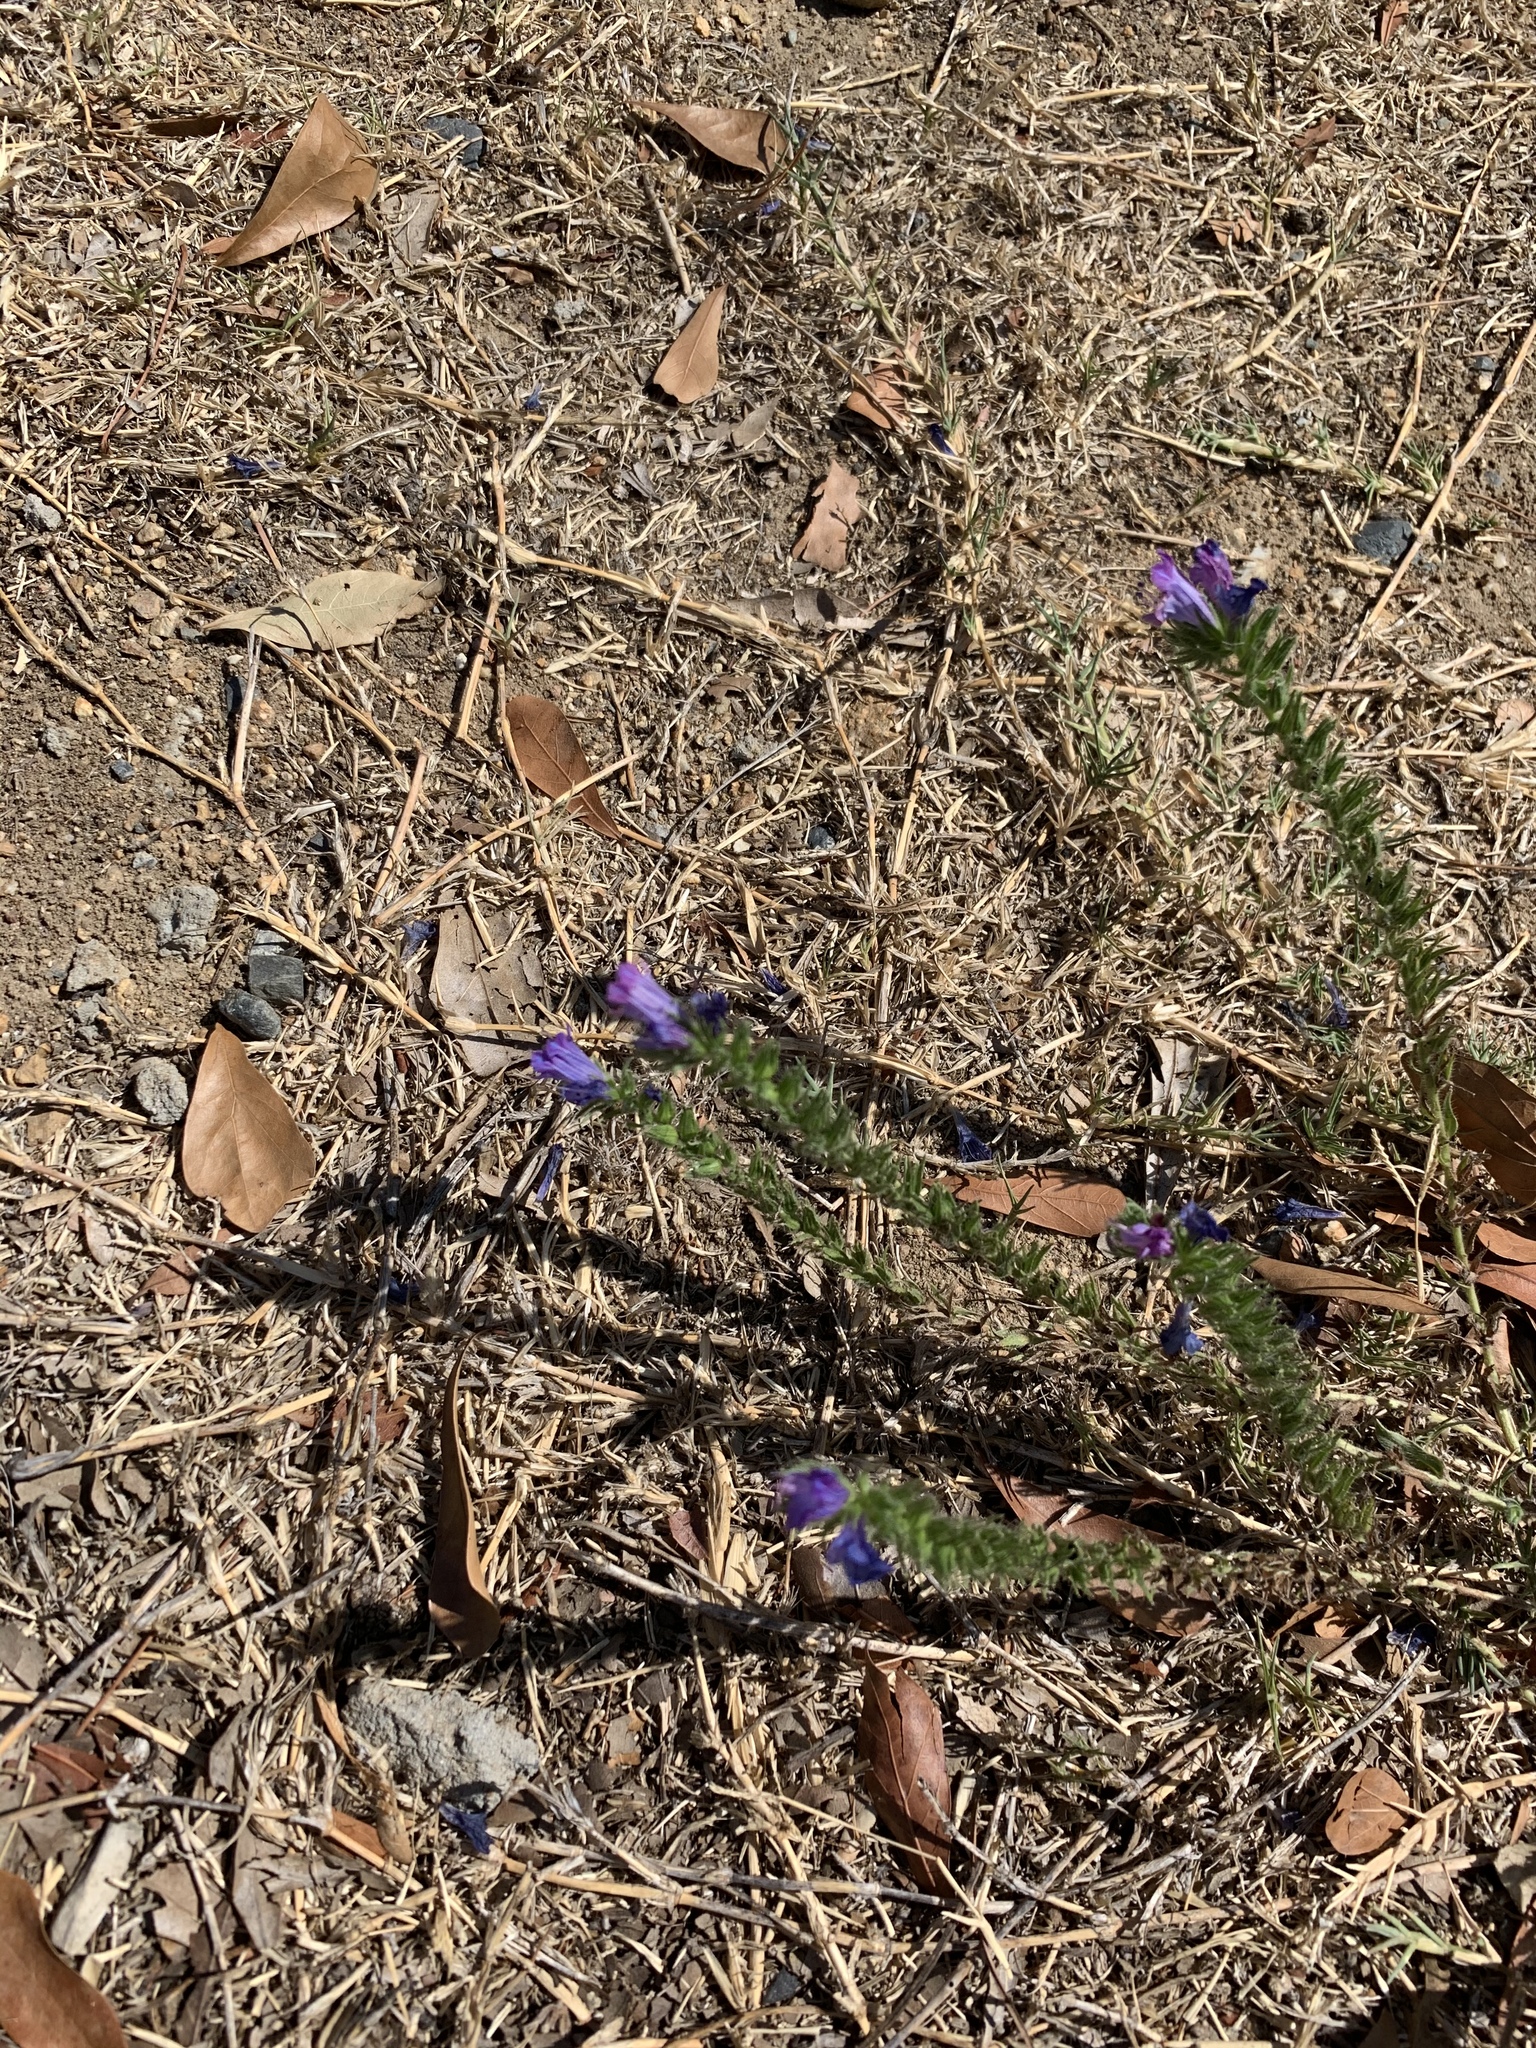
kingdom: Plantae
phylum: Tracheophyta
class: Magnoliopsida
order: Boraginales
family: Boraginaceae
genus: Echium
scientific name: Echium plantagineum
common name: Purple viper's-bugloss
